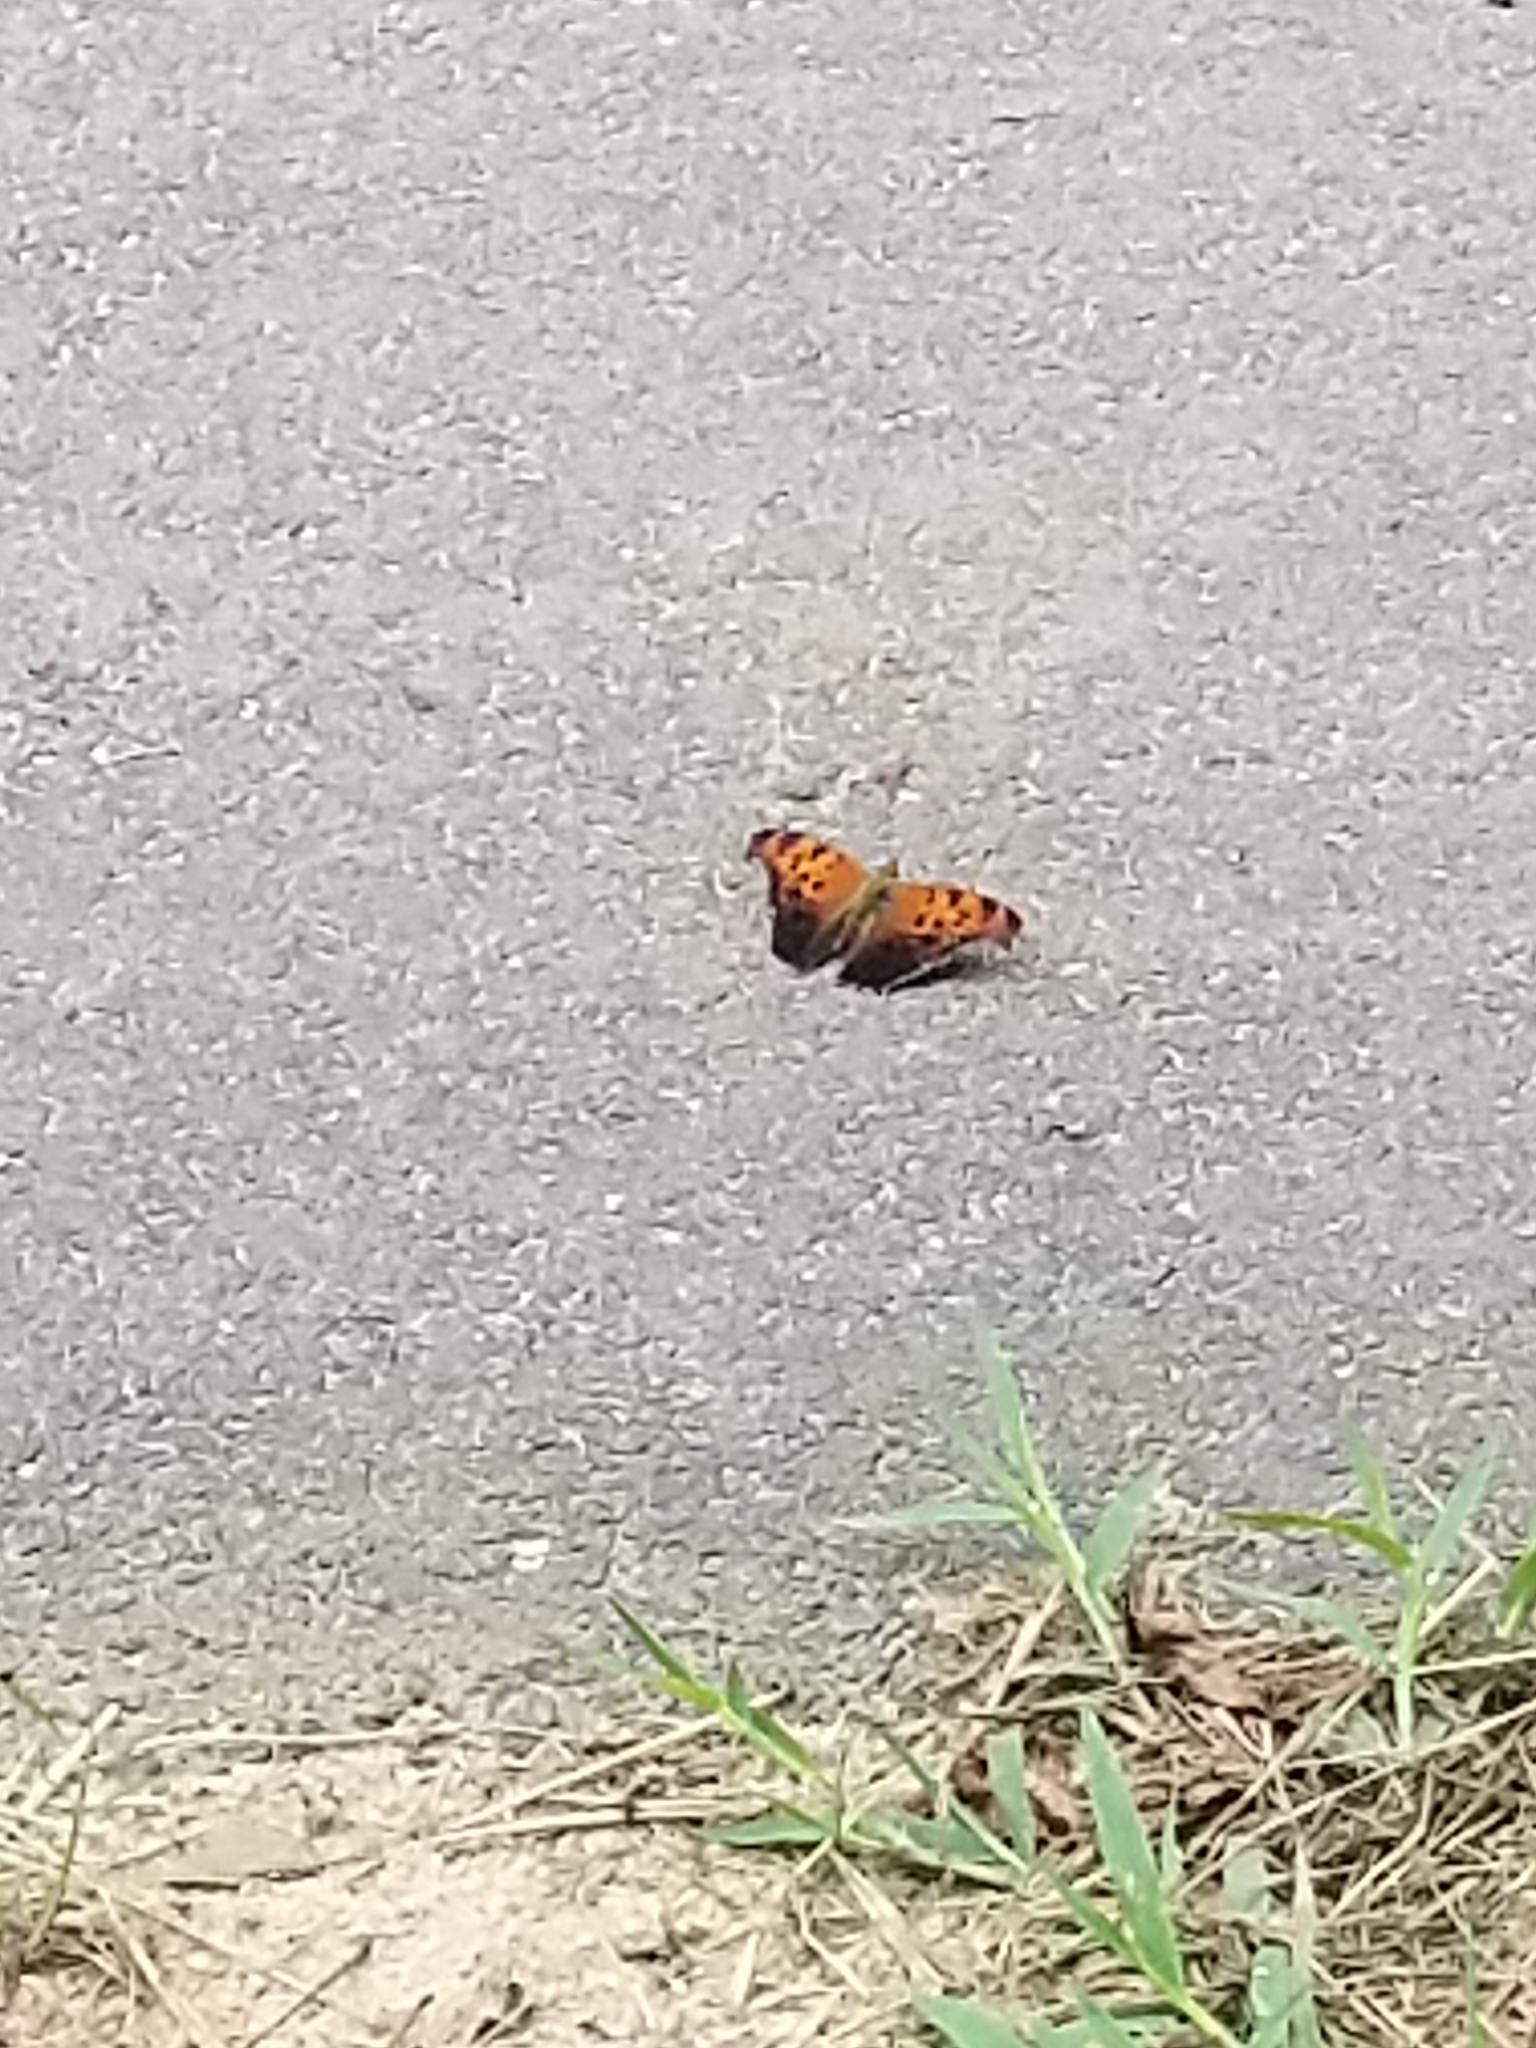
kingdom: Animalia
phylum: Arthropoda
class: Insecta
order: Lepidoptera
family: Nymphalidae
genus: Polygonia
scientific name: Polygonia interrogationis
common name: Question mark
